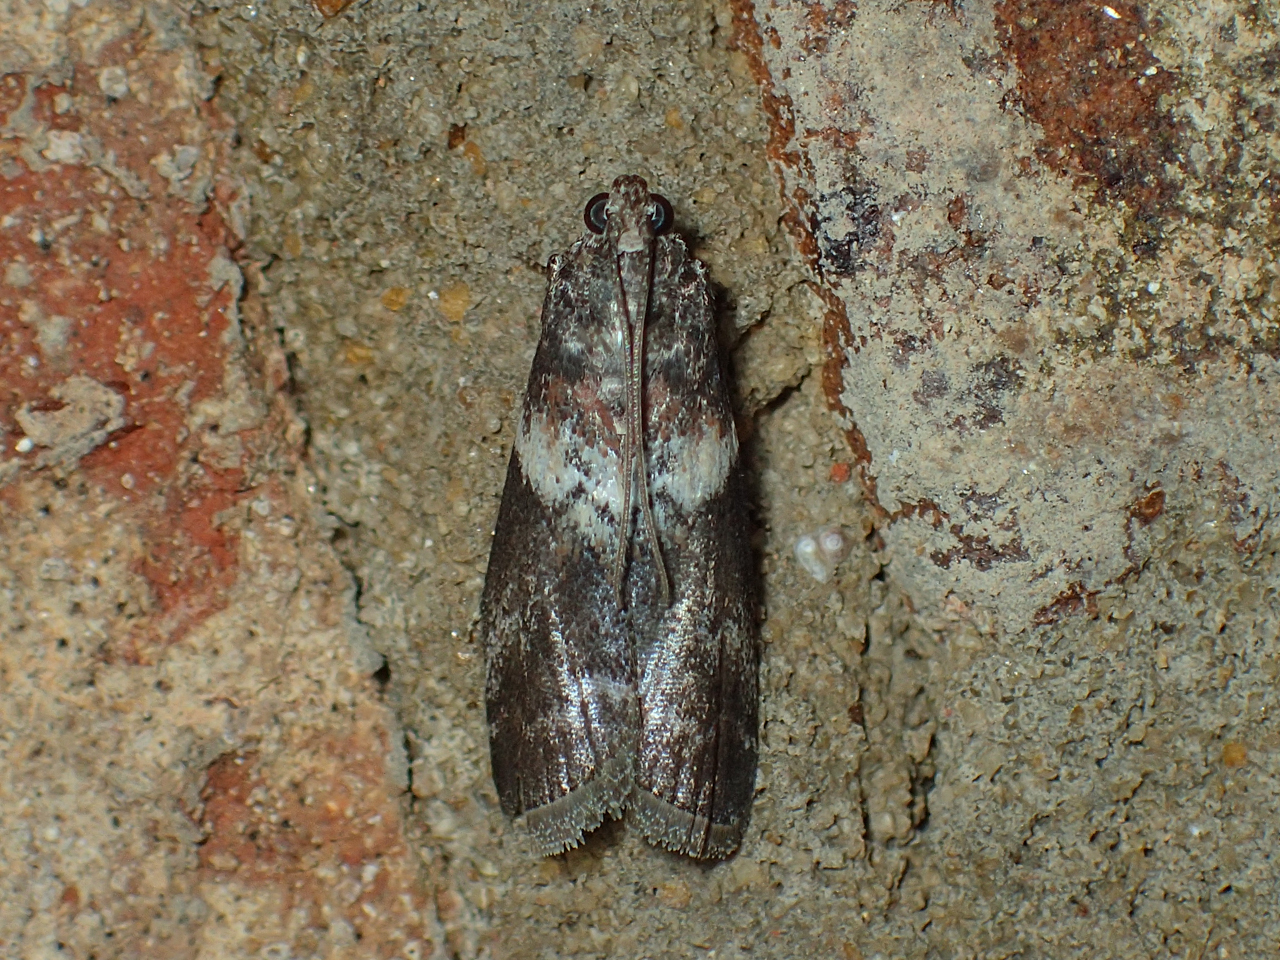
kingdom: Animalia
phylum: Arthropoda
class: Insecta
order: Lepidoptera
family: Pyralidae
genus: Salebriaria
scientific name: Salebriaria rufimaculatella
